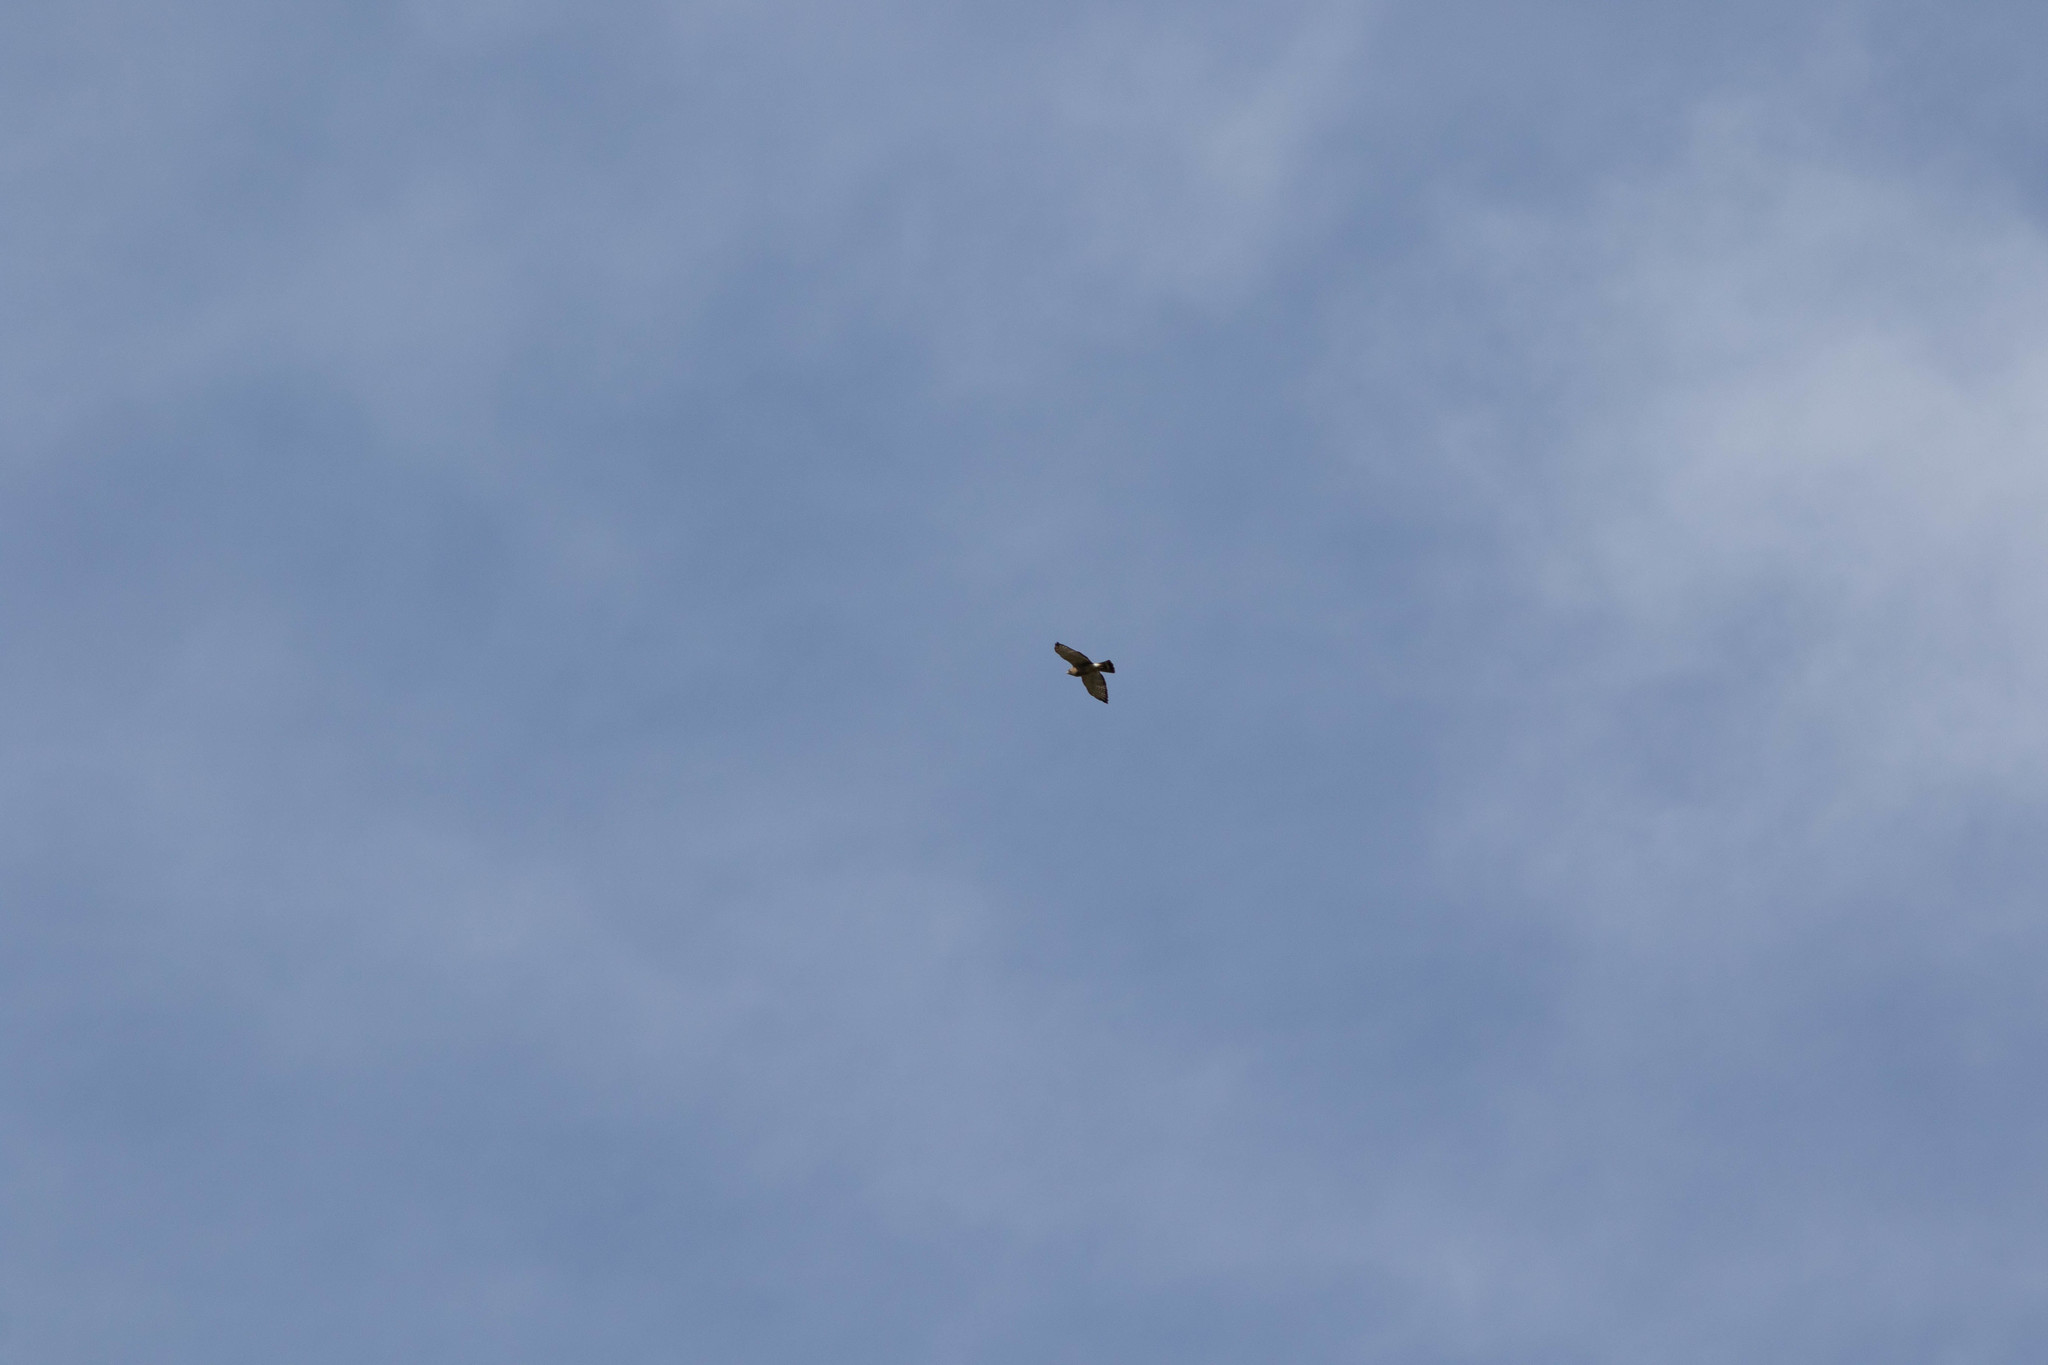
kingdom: Animalia
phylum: Chordata
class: Aves
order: Accipitriformes
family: Accipitridae
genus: Buteo
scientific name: Buteo platypterus
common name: Broad-winged hawk
